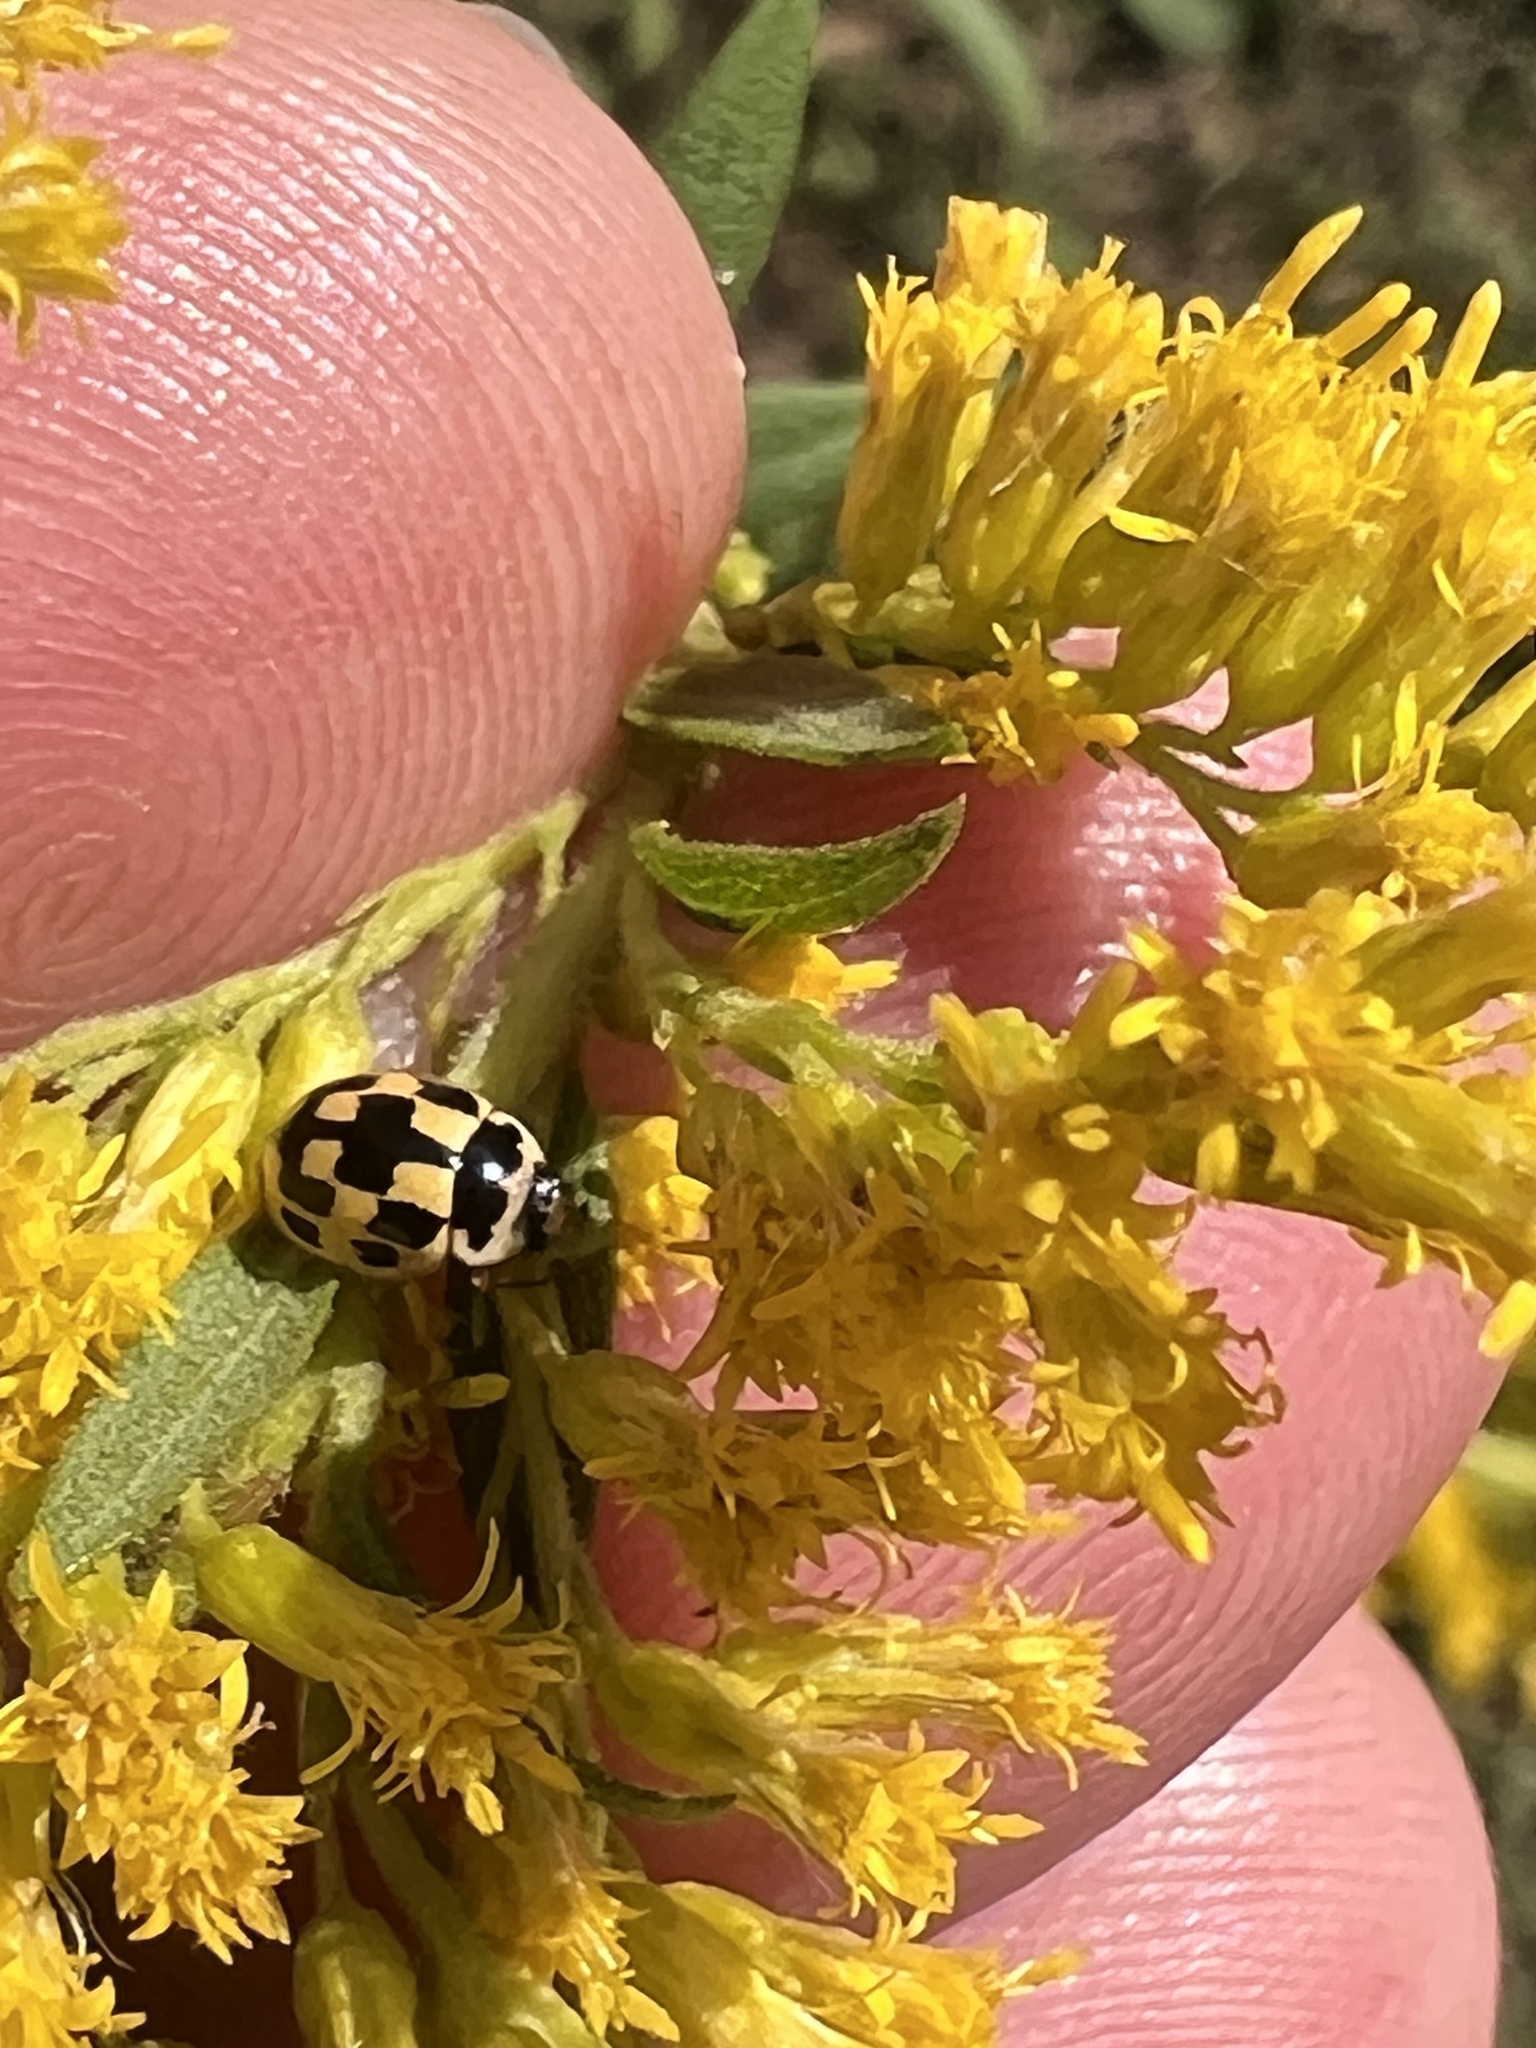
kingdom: Animalia
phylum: Arthropoda
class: Insecta
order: Coleoptera
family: Coccinellidae
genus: Propylaea
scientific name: Propylaea quatuordecimpunctata
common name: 14-spotted ladybird beetle
